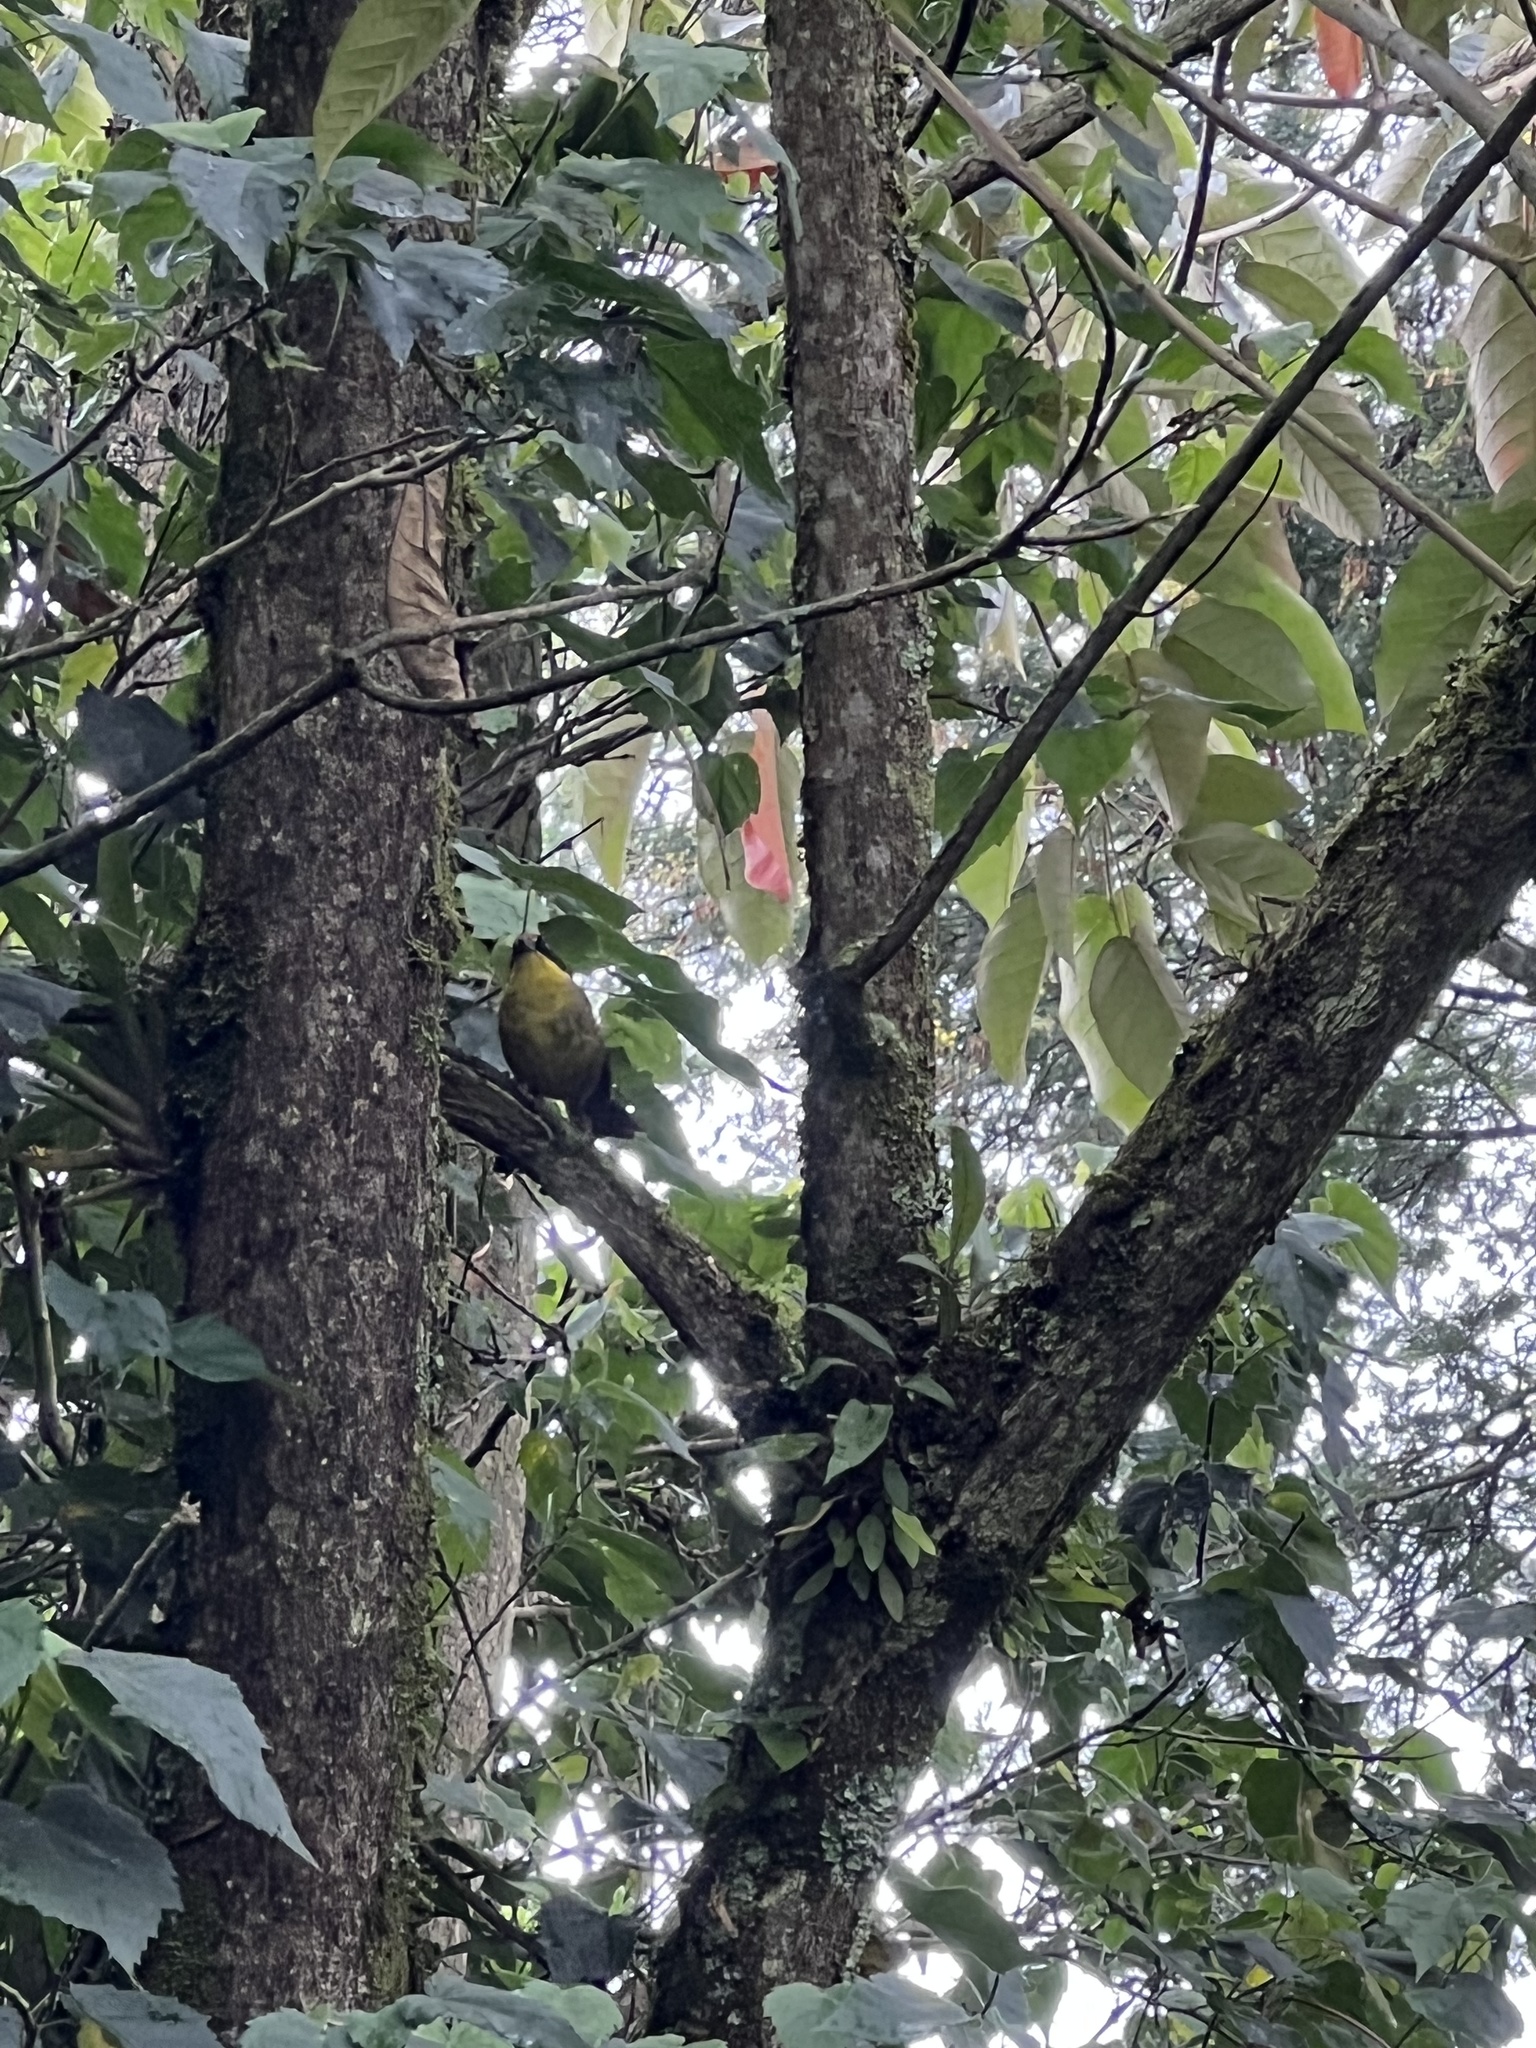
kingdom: Animalia
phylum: Chordata
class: Aves
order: Passeriformes
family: Passerellidae
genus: Atlapetes
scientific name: Atlapetes pallidinucha
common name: Pale-naped brushfinch
